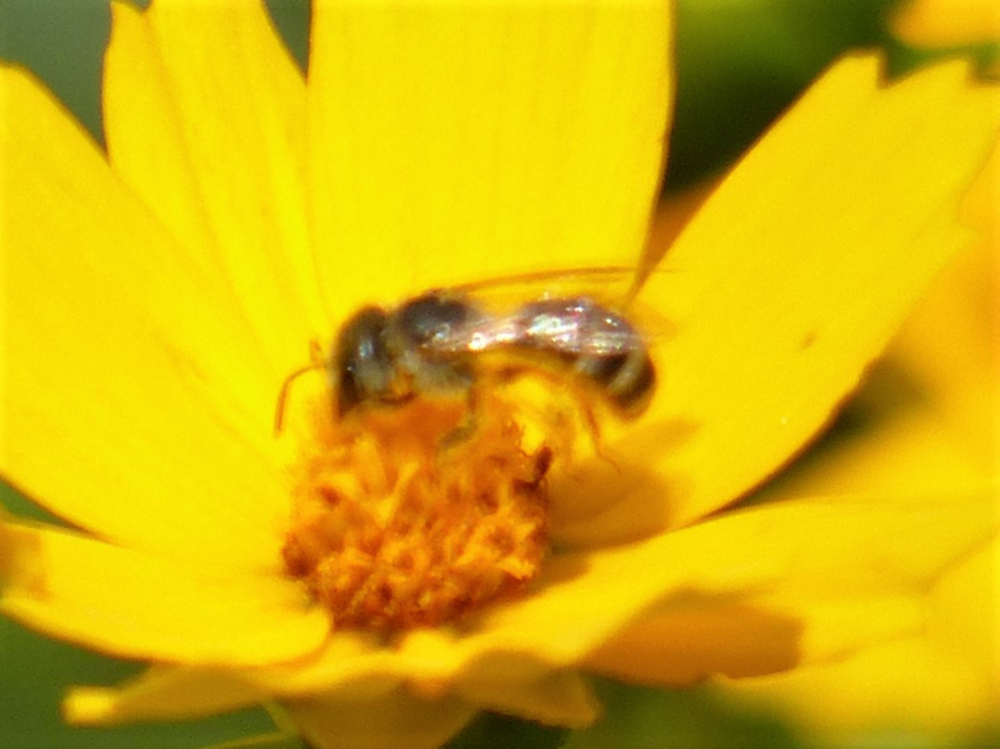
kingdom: Animalia
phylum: Arthropoda
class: Insecta
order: Hymenoptera
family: Halictidae
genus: Halictus
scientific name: Halictus ligatus
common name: Ligated furrow bee
